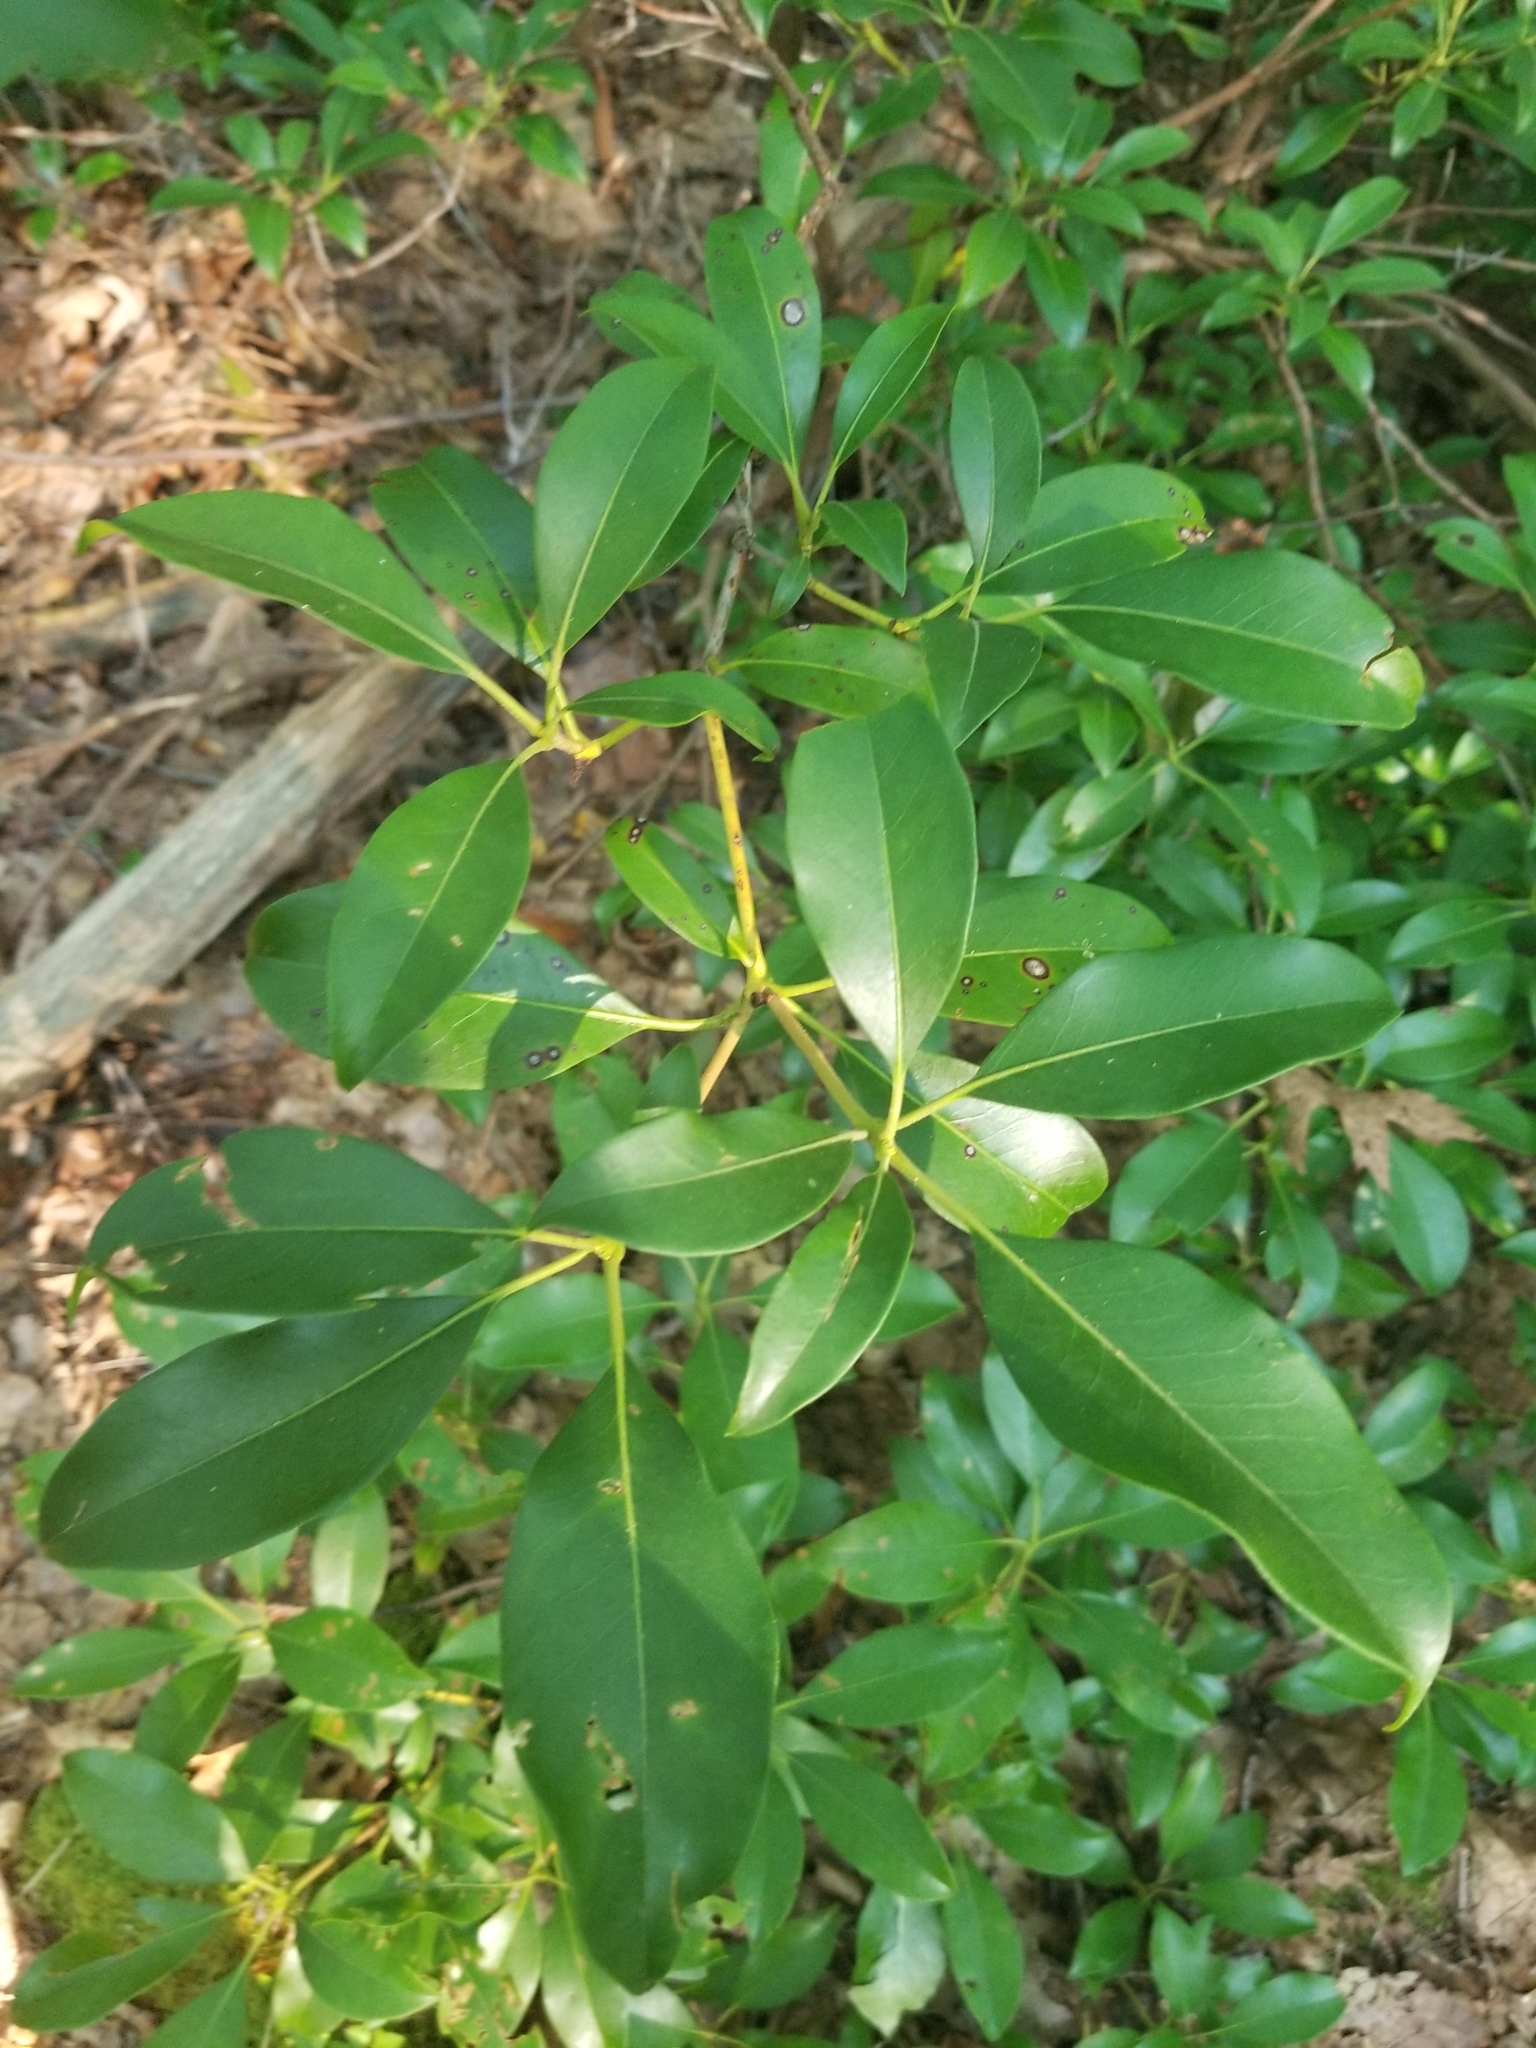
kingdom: Plantae
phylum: Tracheophyta
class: Magnoliopsida
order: Ericales
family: Ericaceae
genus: Kalmia
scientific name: Kalmia latifolia
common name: Mountain-laurel
